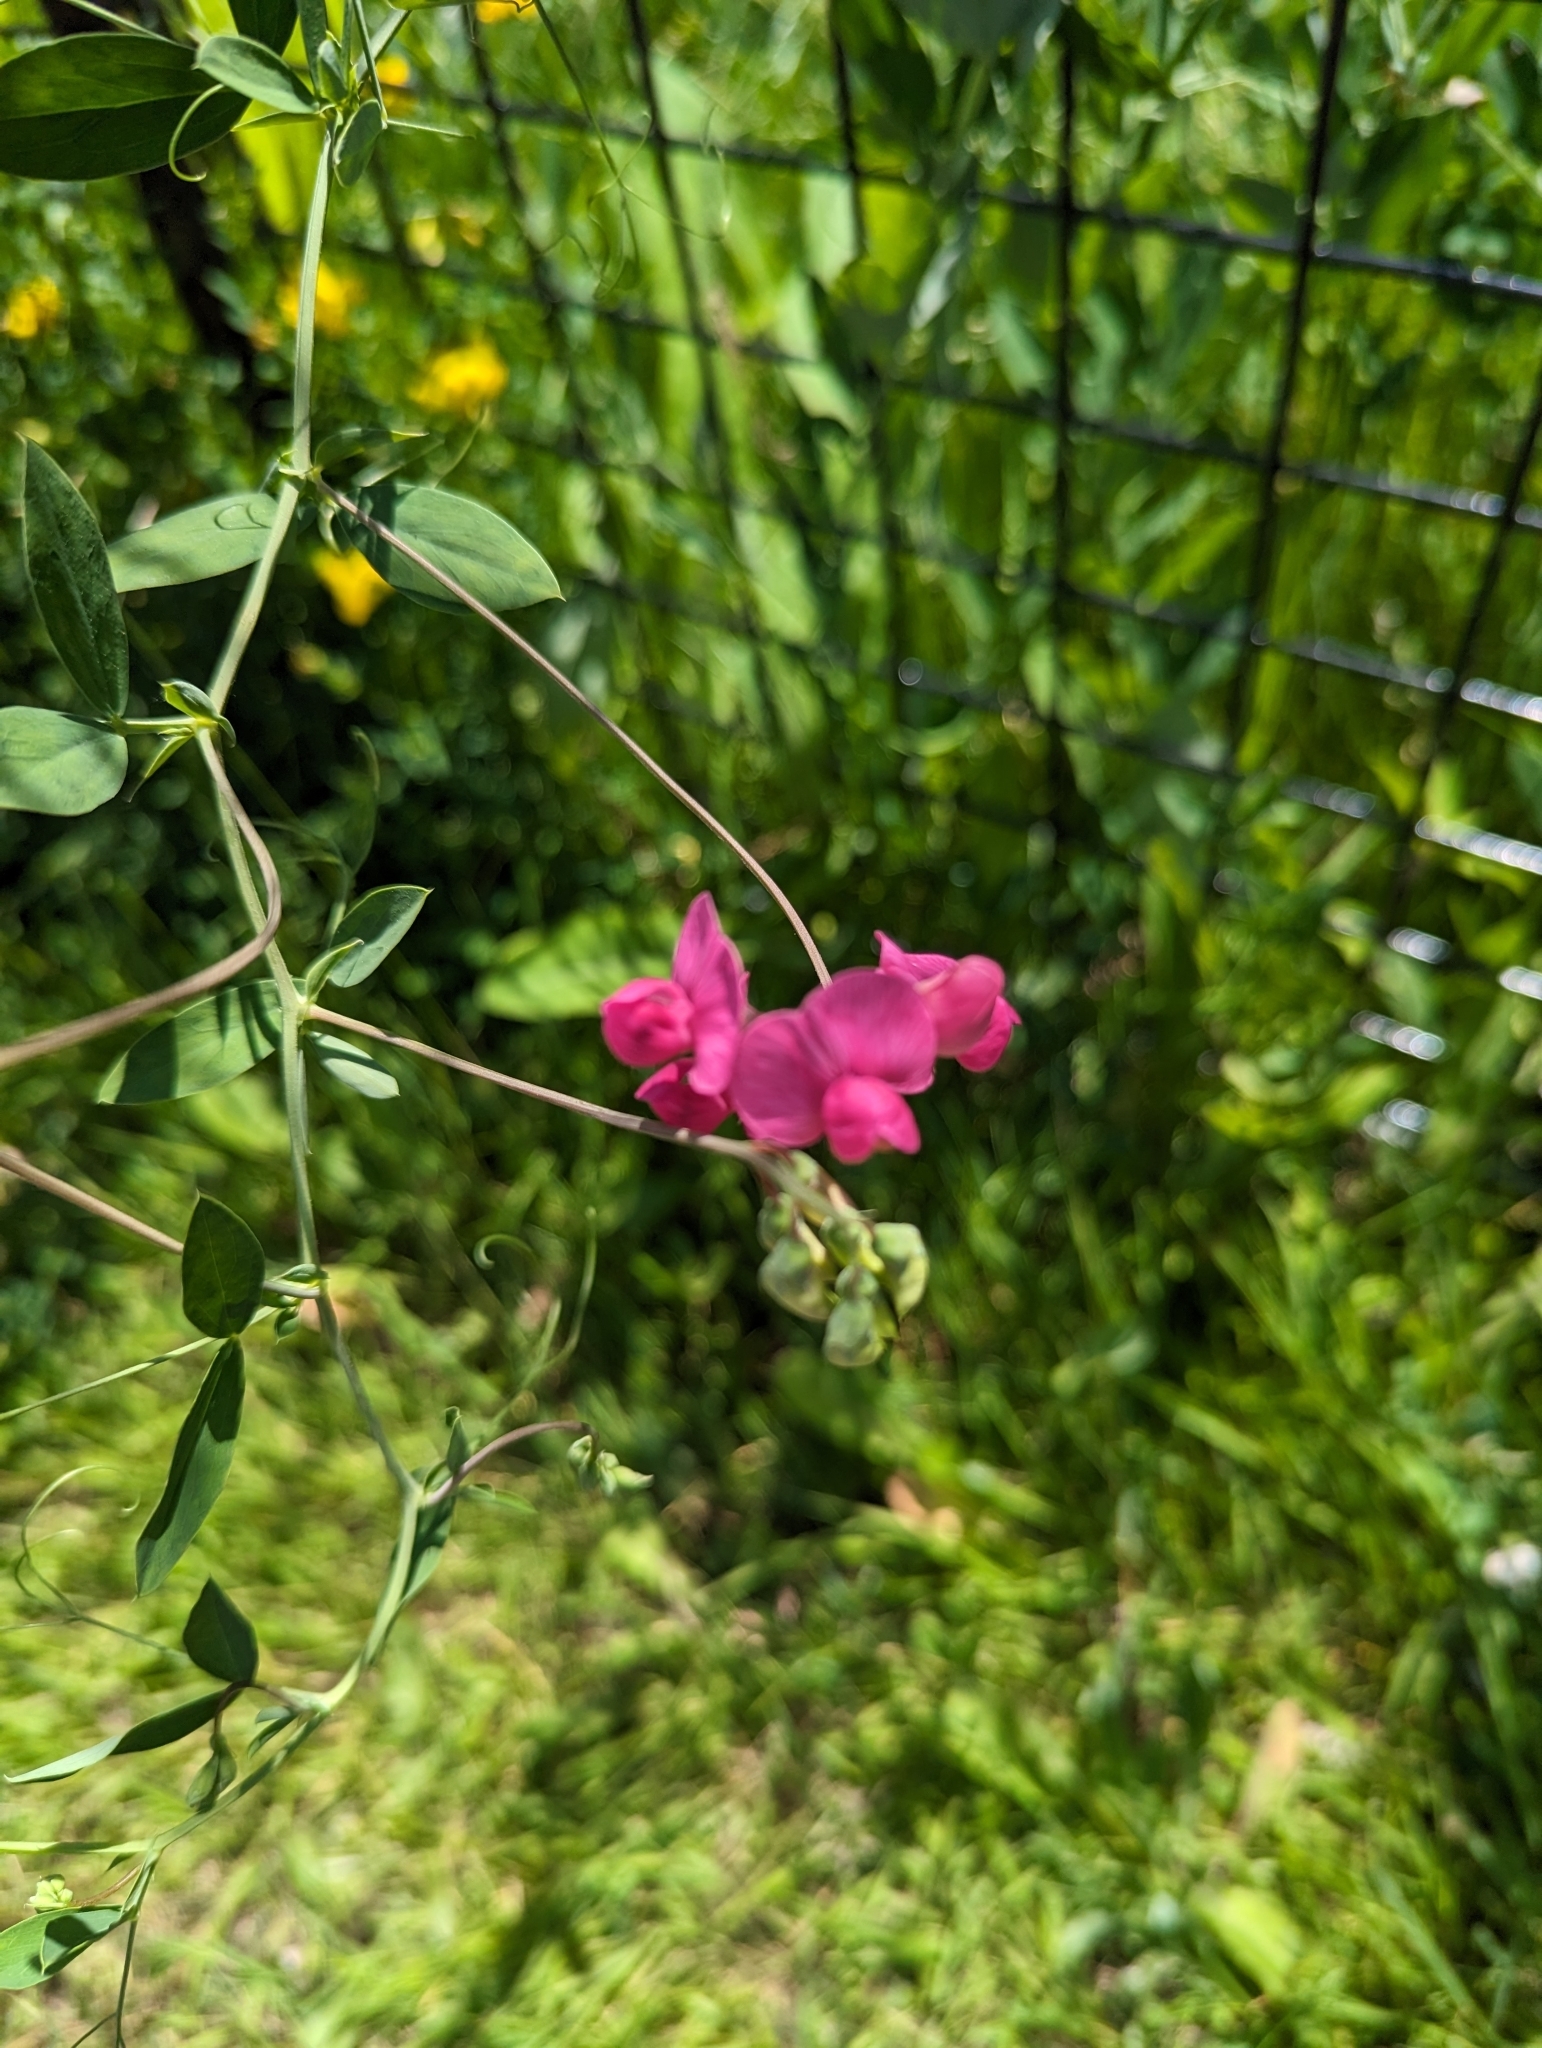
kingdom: Plantae
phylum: Tracheophyta
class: Magnoliopsida
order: Fabales
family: Fabaceae
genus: Lathyrus
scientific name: Lathyrus tuberosus
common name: Tuberous pea
